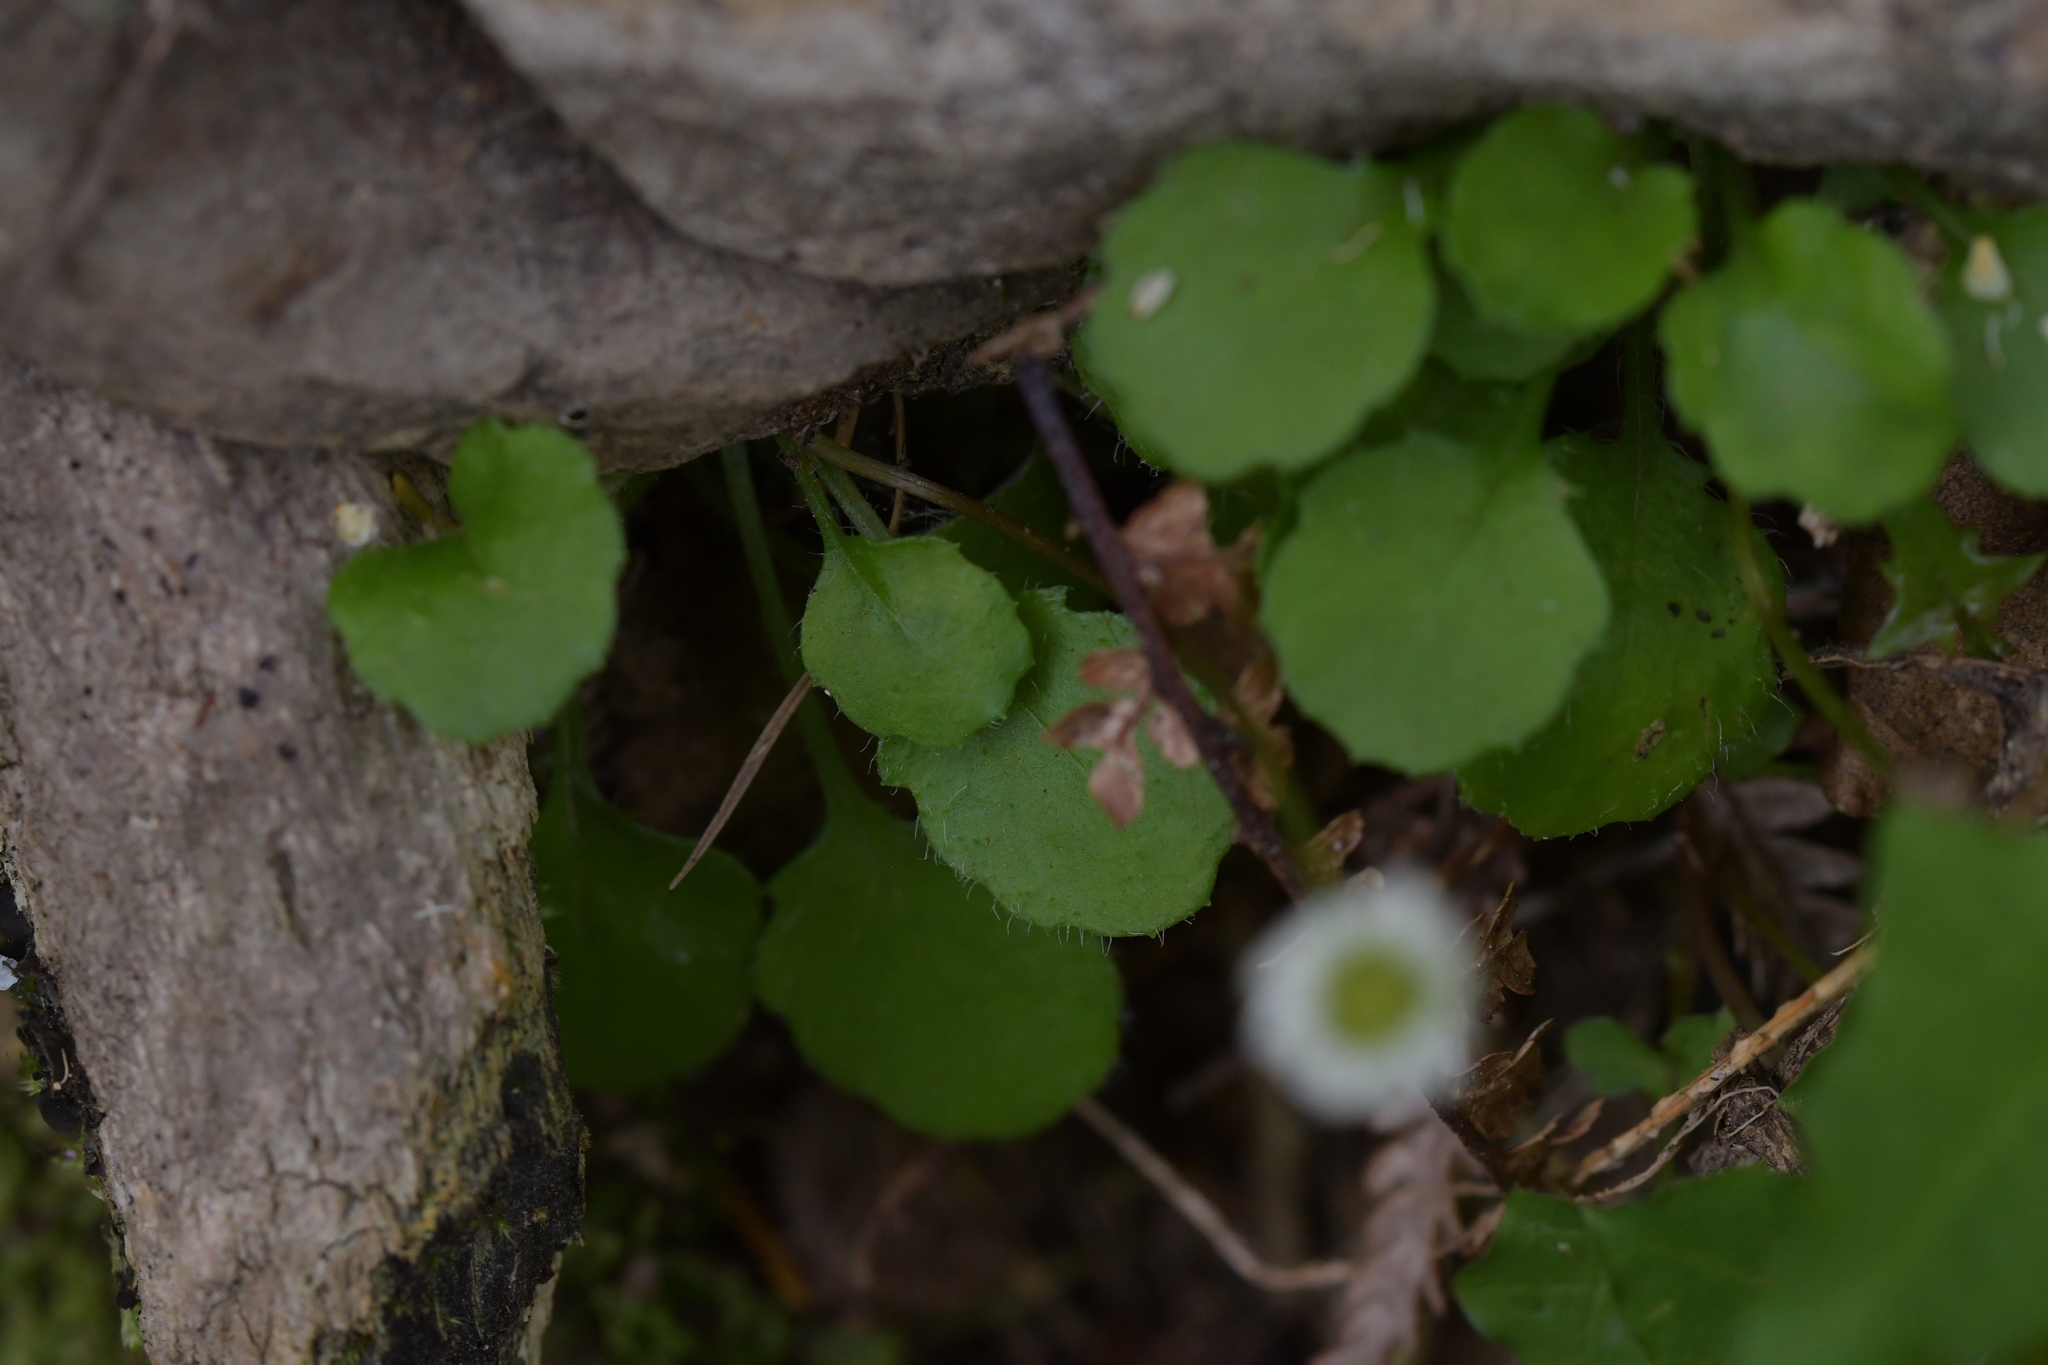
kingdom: Plantae
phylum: Tracheophyta
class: Magnoliopsida
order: Asterales
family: Asteraceae
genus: Lagenophora
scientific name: Lagenophora strangulata
